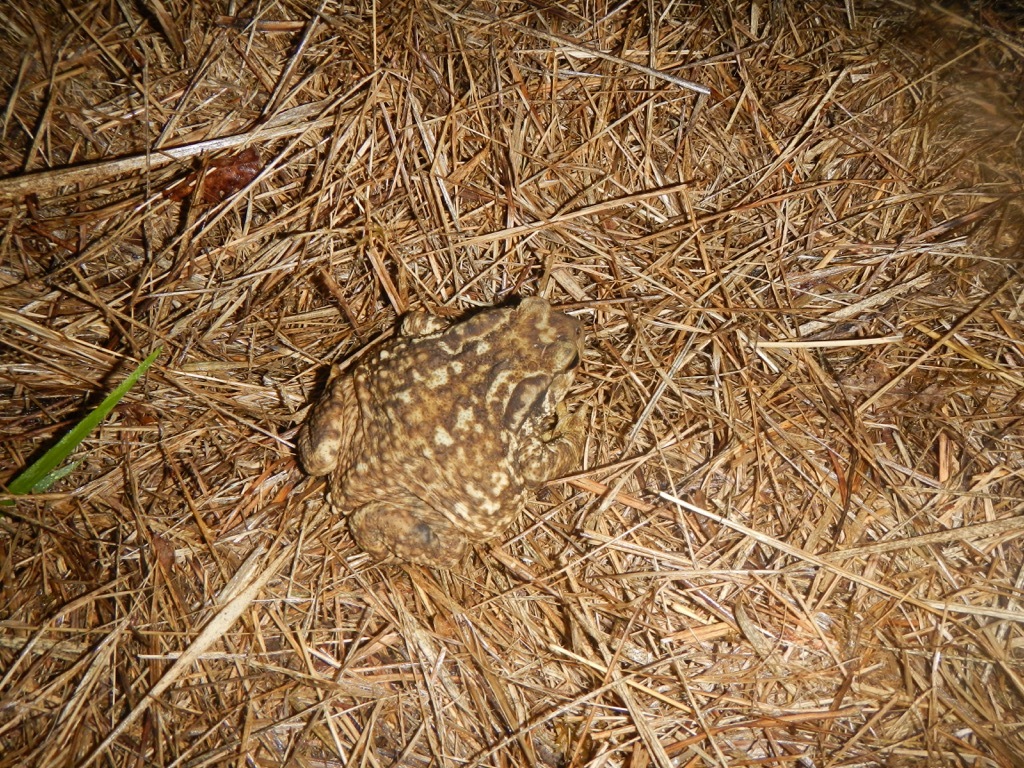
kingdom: Animalia
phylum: Chordata
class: Amphibia
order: Anura
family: Bufonidae
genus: Bufo
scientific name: Bufo spinosus
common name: Western common toad
